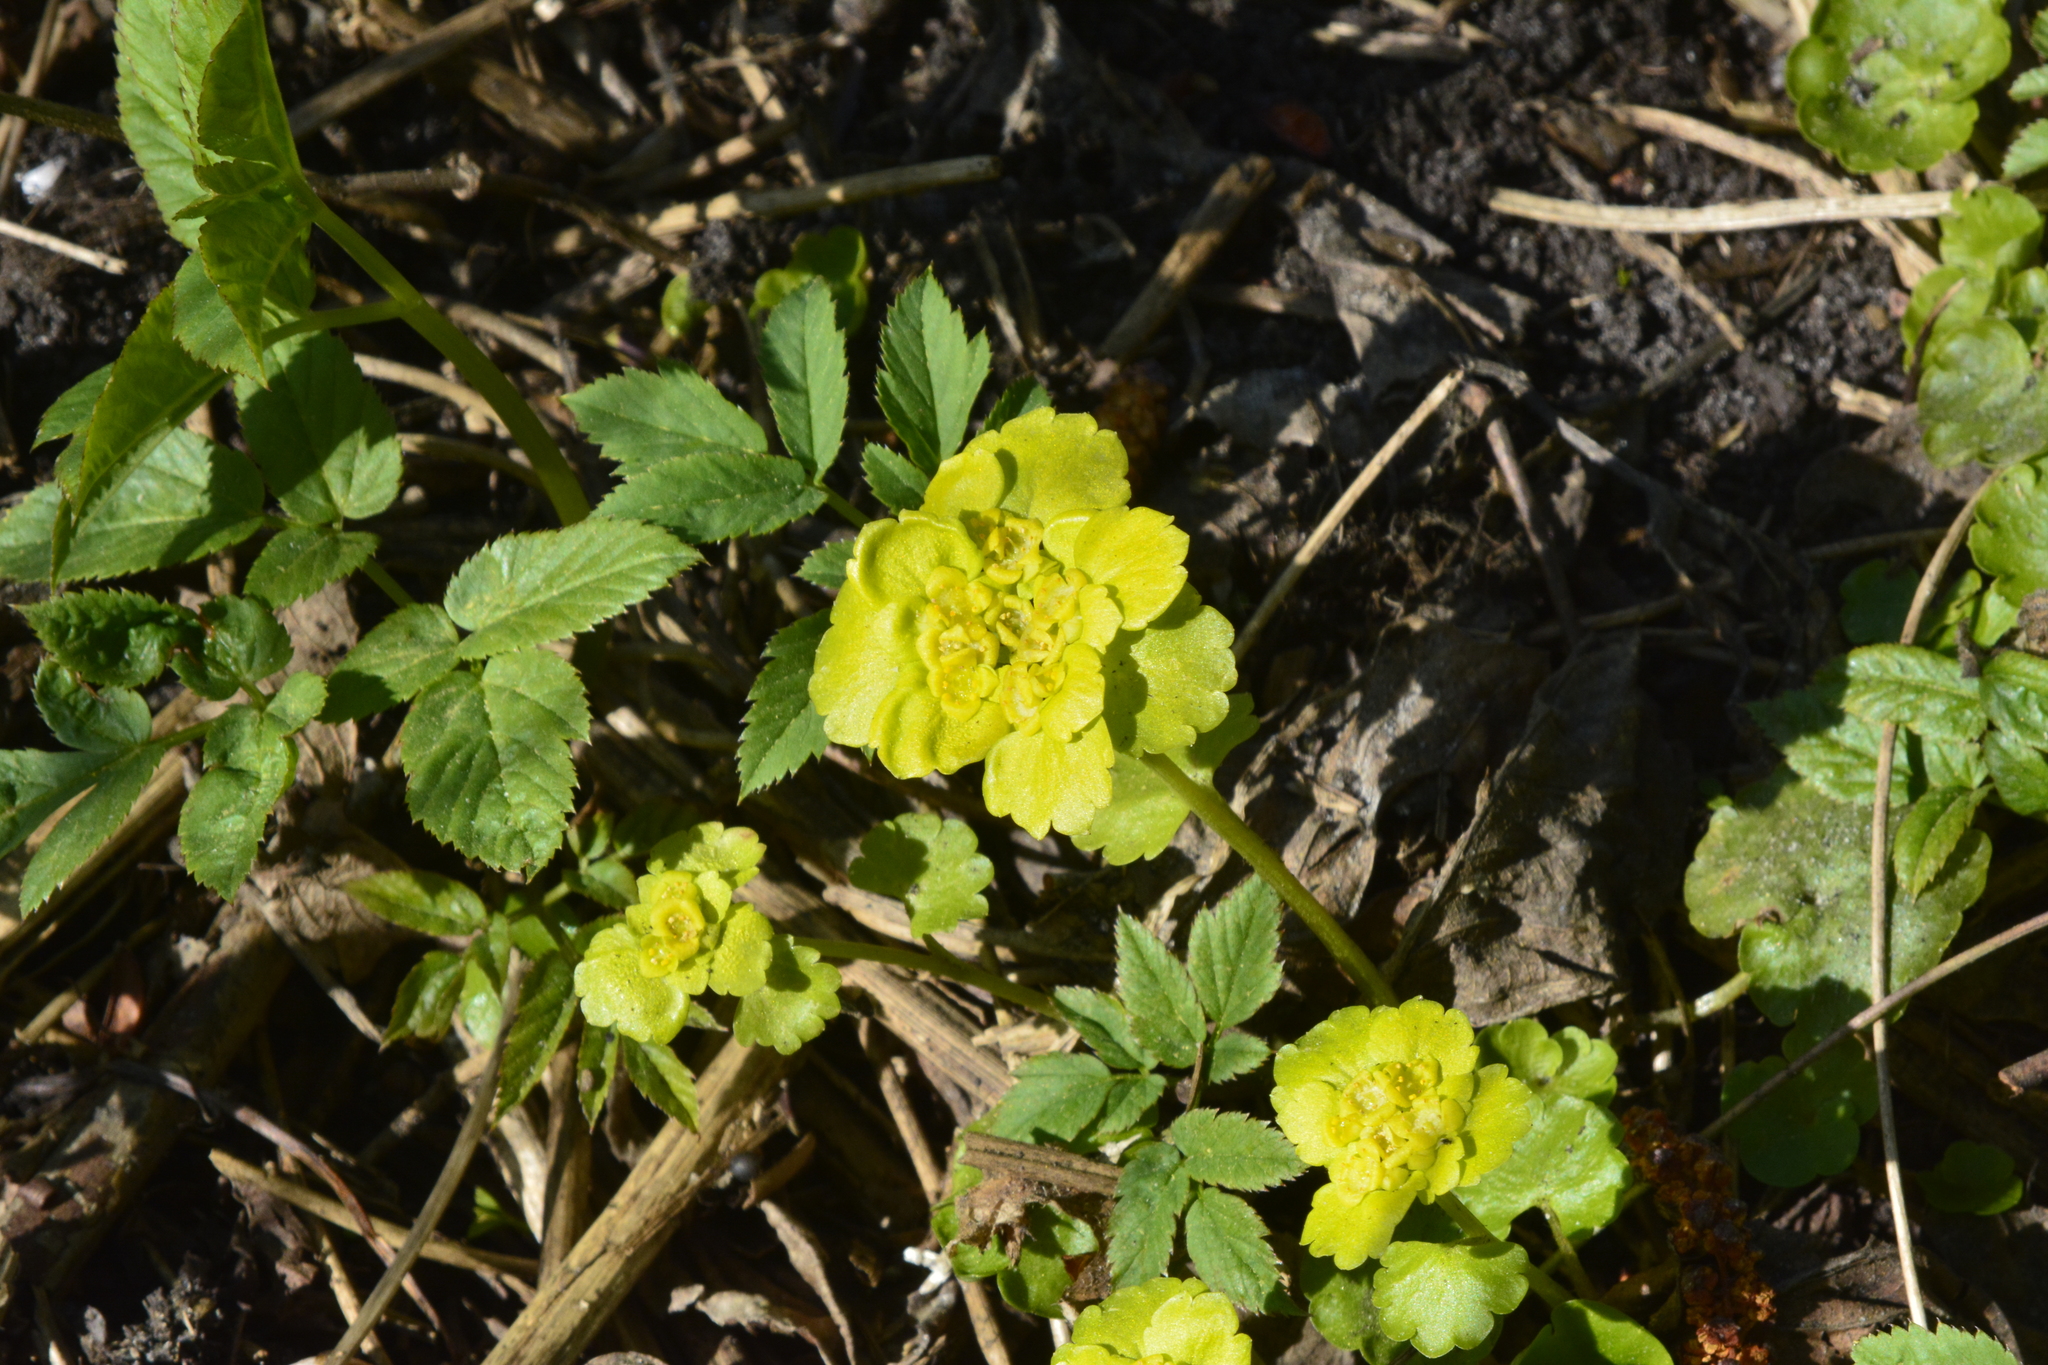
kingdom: Plantae
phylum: Tracheophyta
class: Magnoliopsida
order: Saxifragales
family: Saxifragaceae
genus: Chrysosplenium
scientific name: Chrysosplenium alternifolium
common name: Alternate-leaved golden-saxifrage
